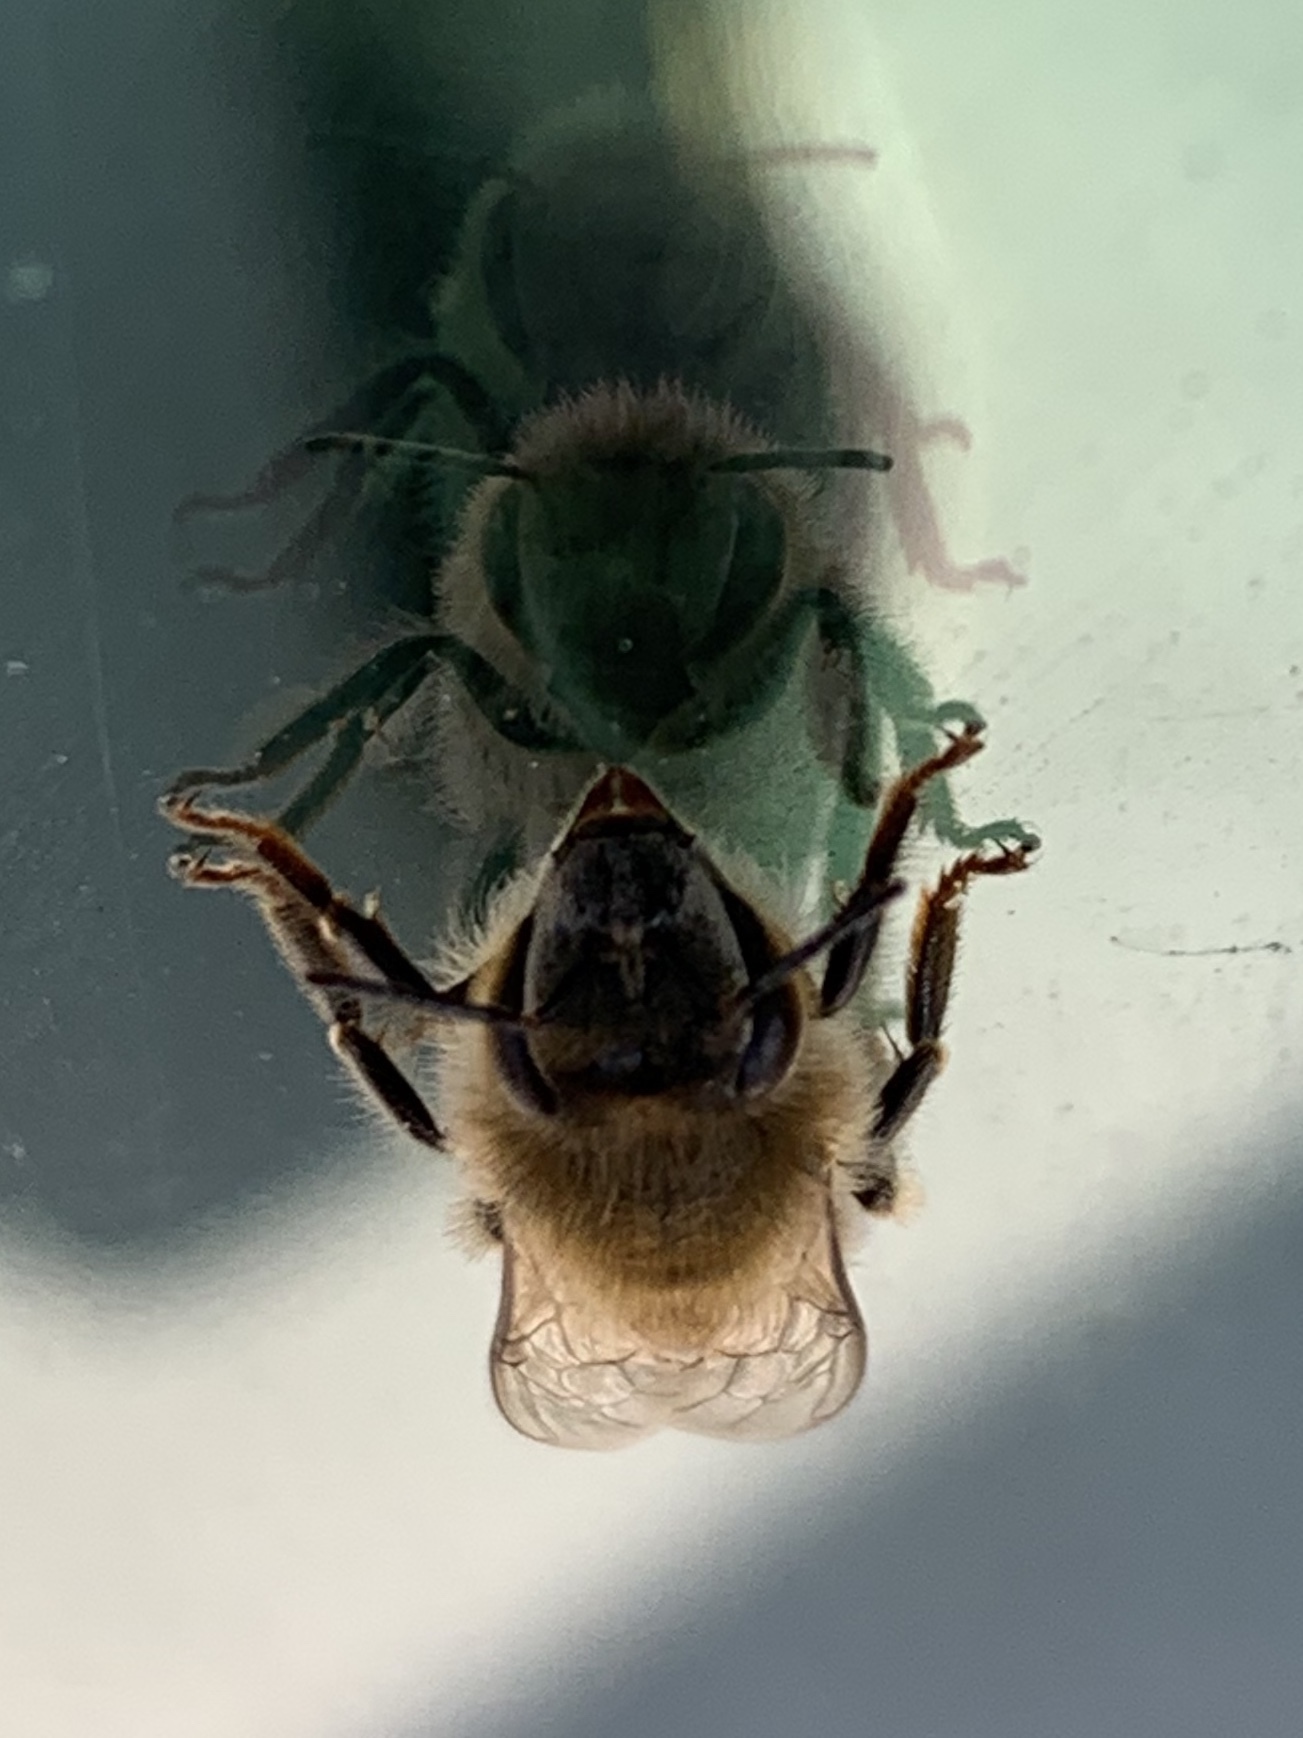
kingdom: Animalia
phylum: Arthropoda
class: Insecta
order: Hymenoptera
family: Apidae
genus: Apis
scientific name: Apis mellifera
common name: Honey bee
